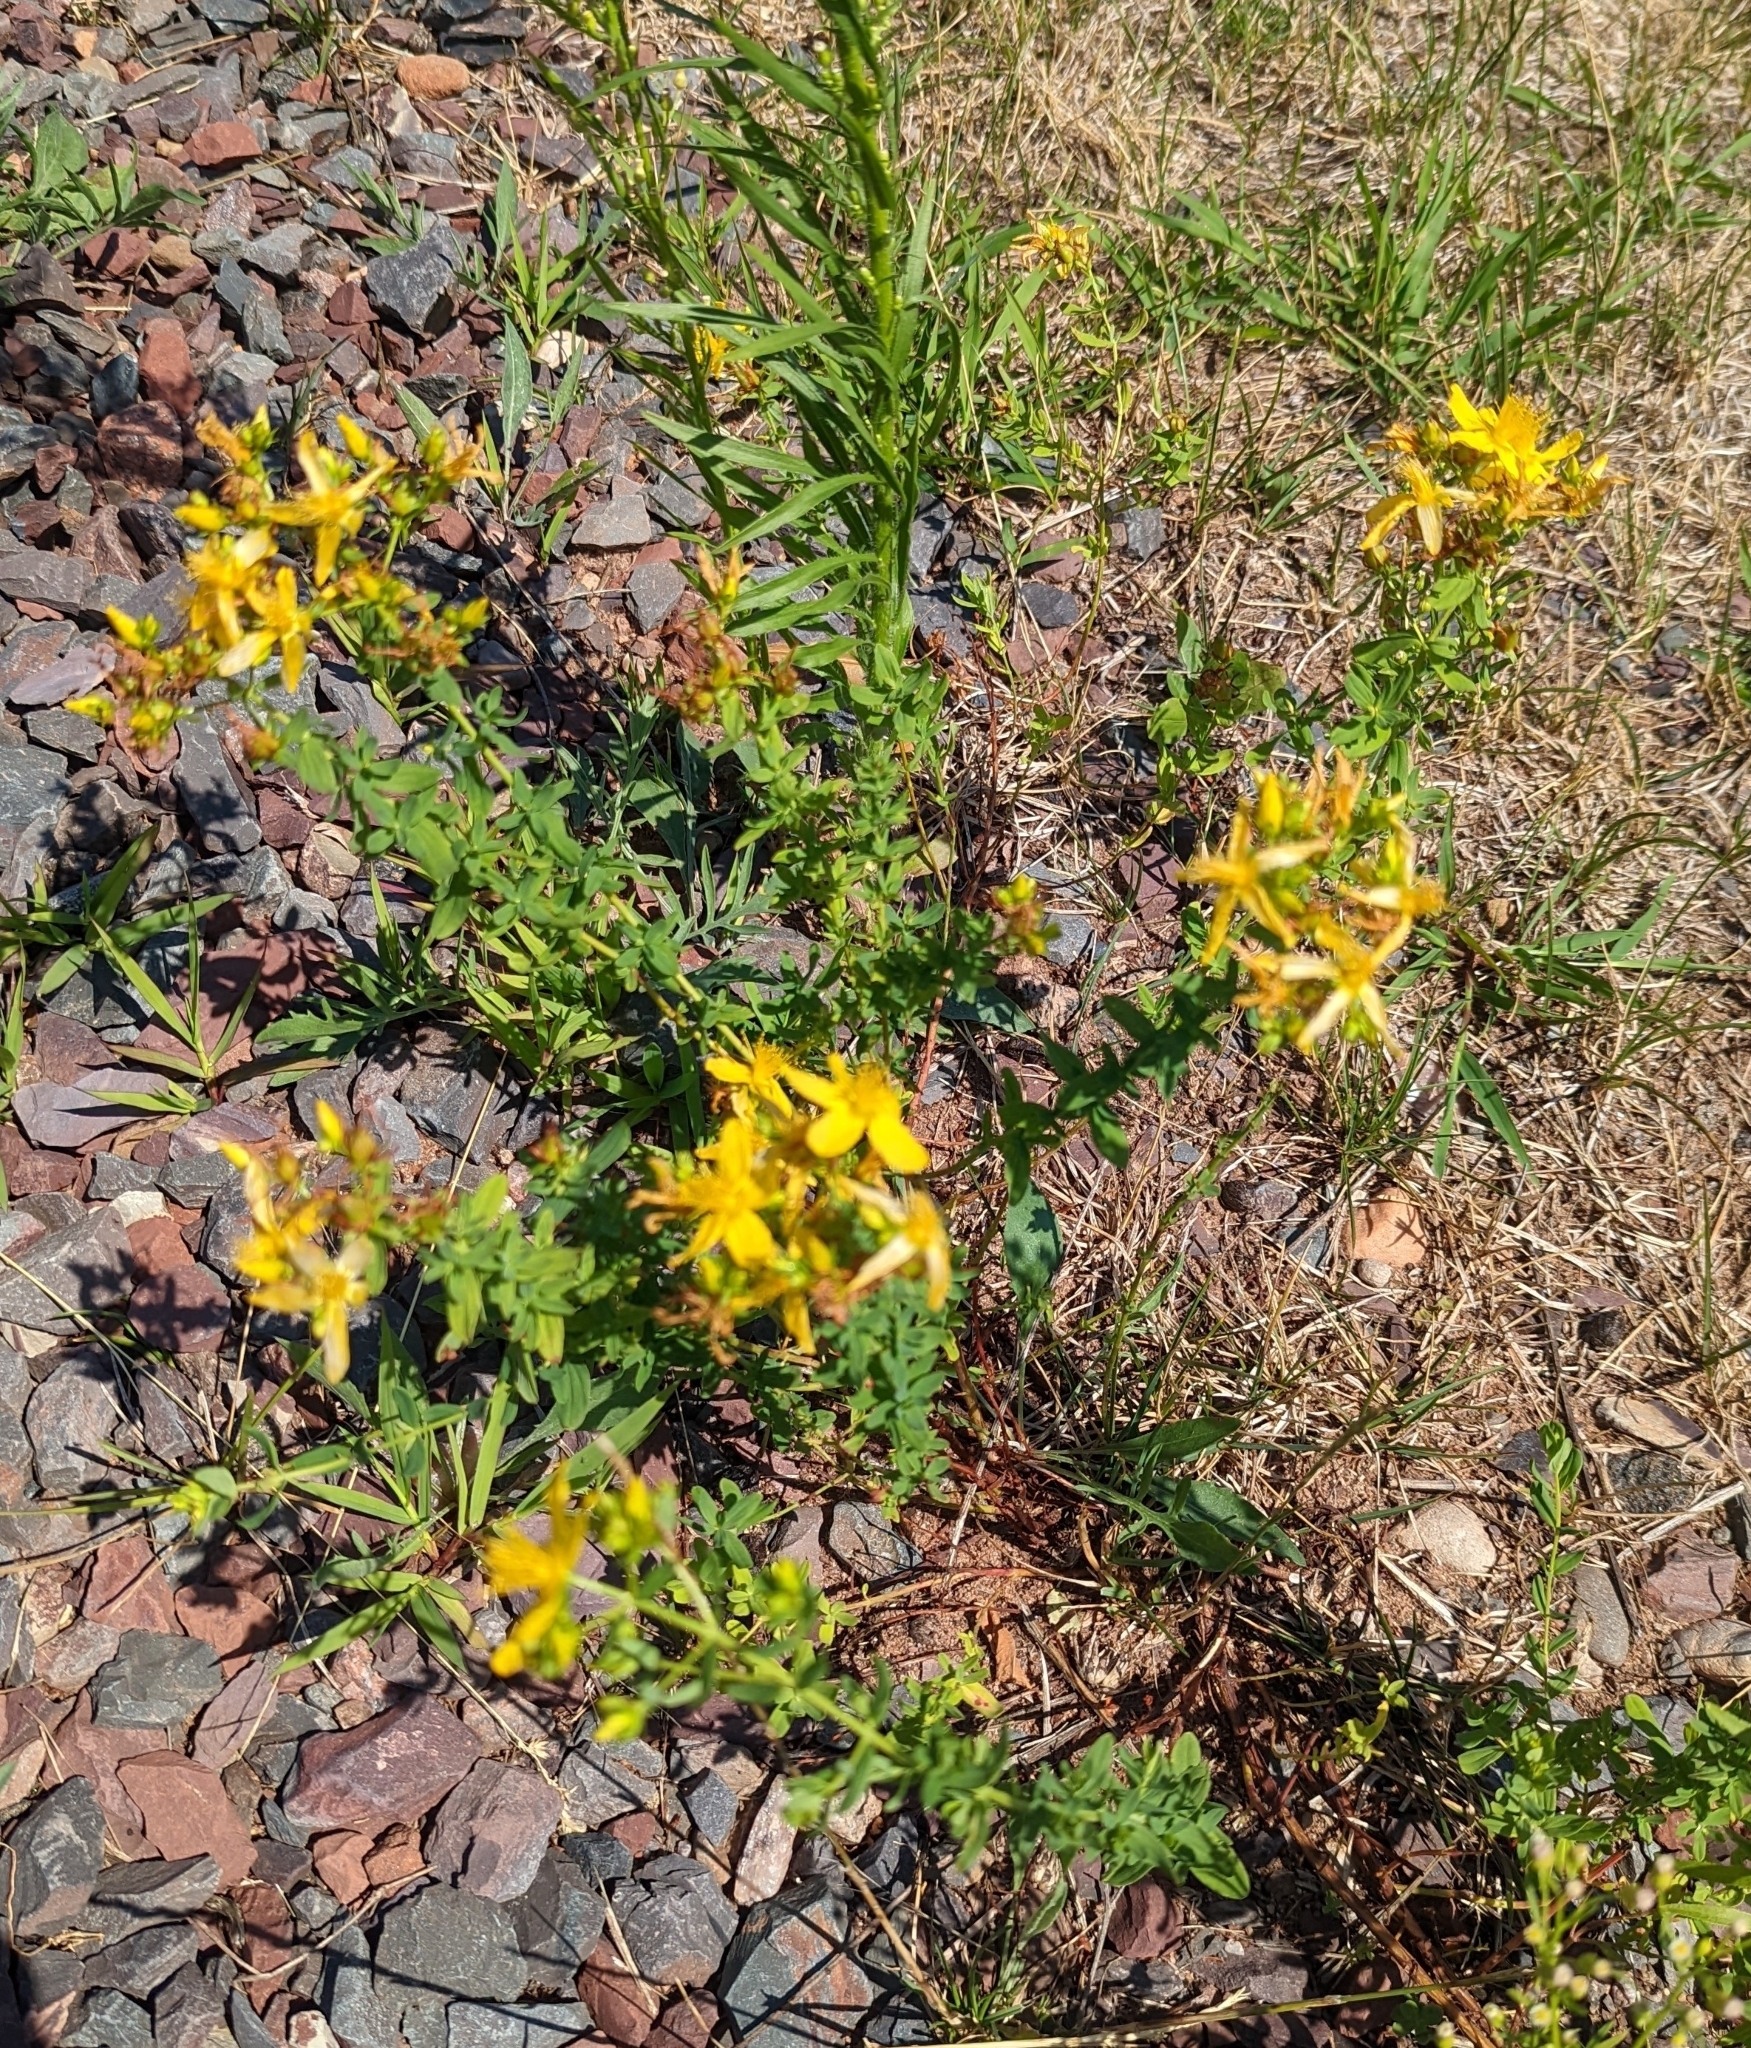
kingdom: Plantae
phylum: Tracheophyta
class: Magnoliopsida
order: Malpighiales
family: Hypericaceae
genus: Hypericum
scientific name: Hypericum perforatum
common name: Common st. johnswort
